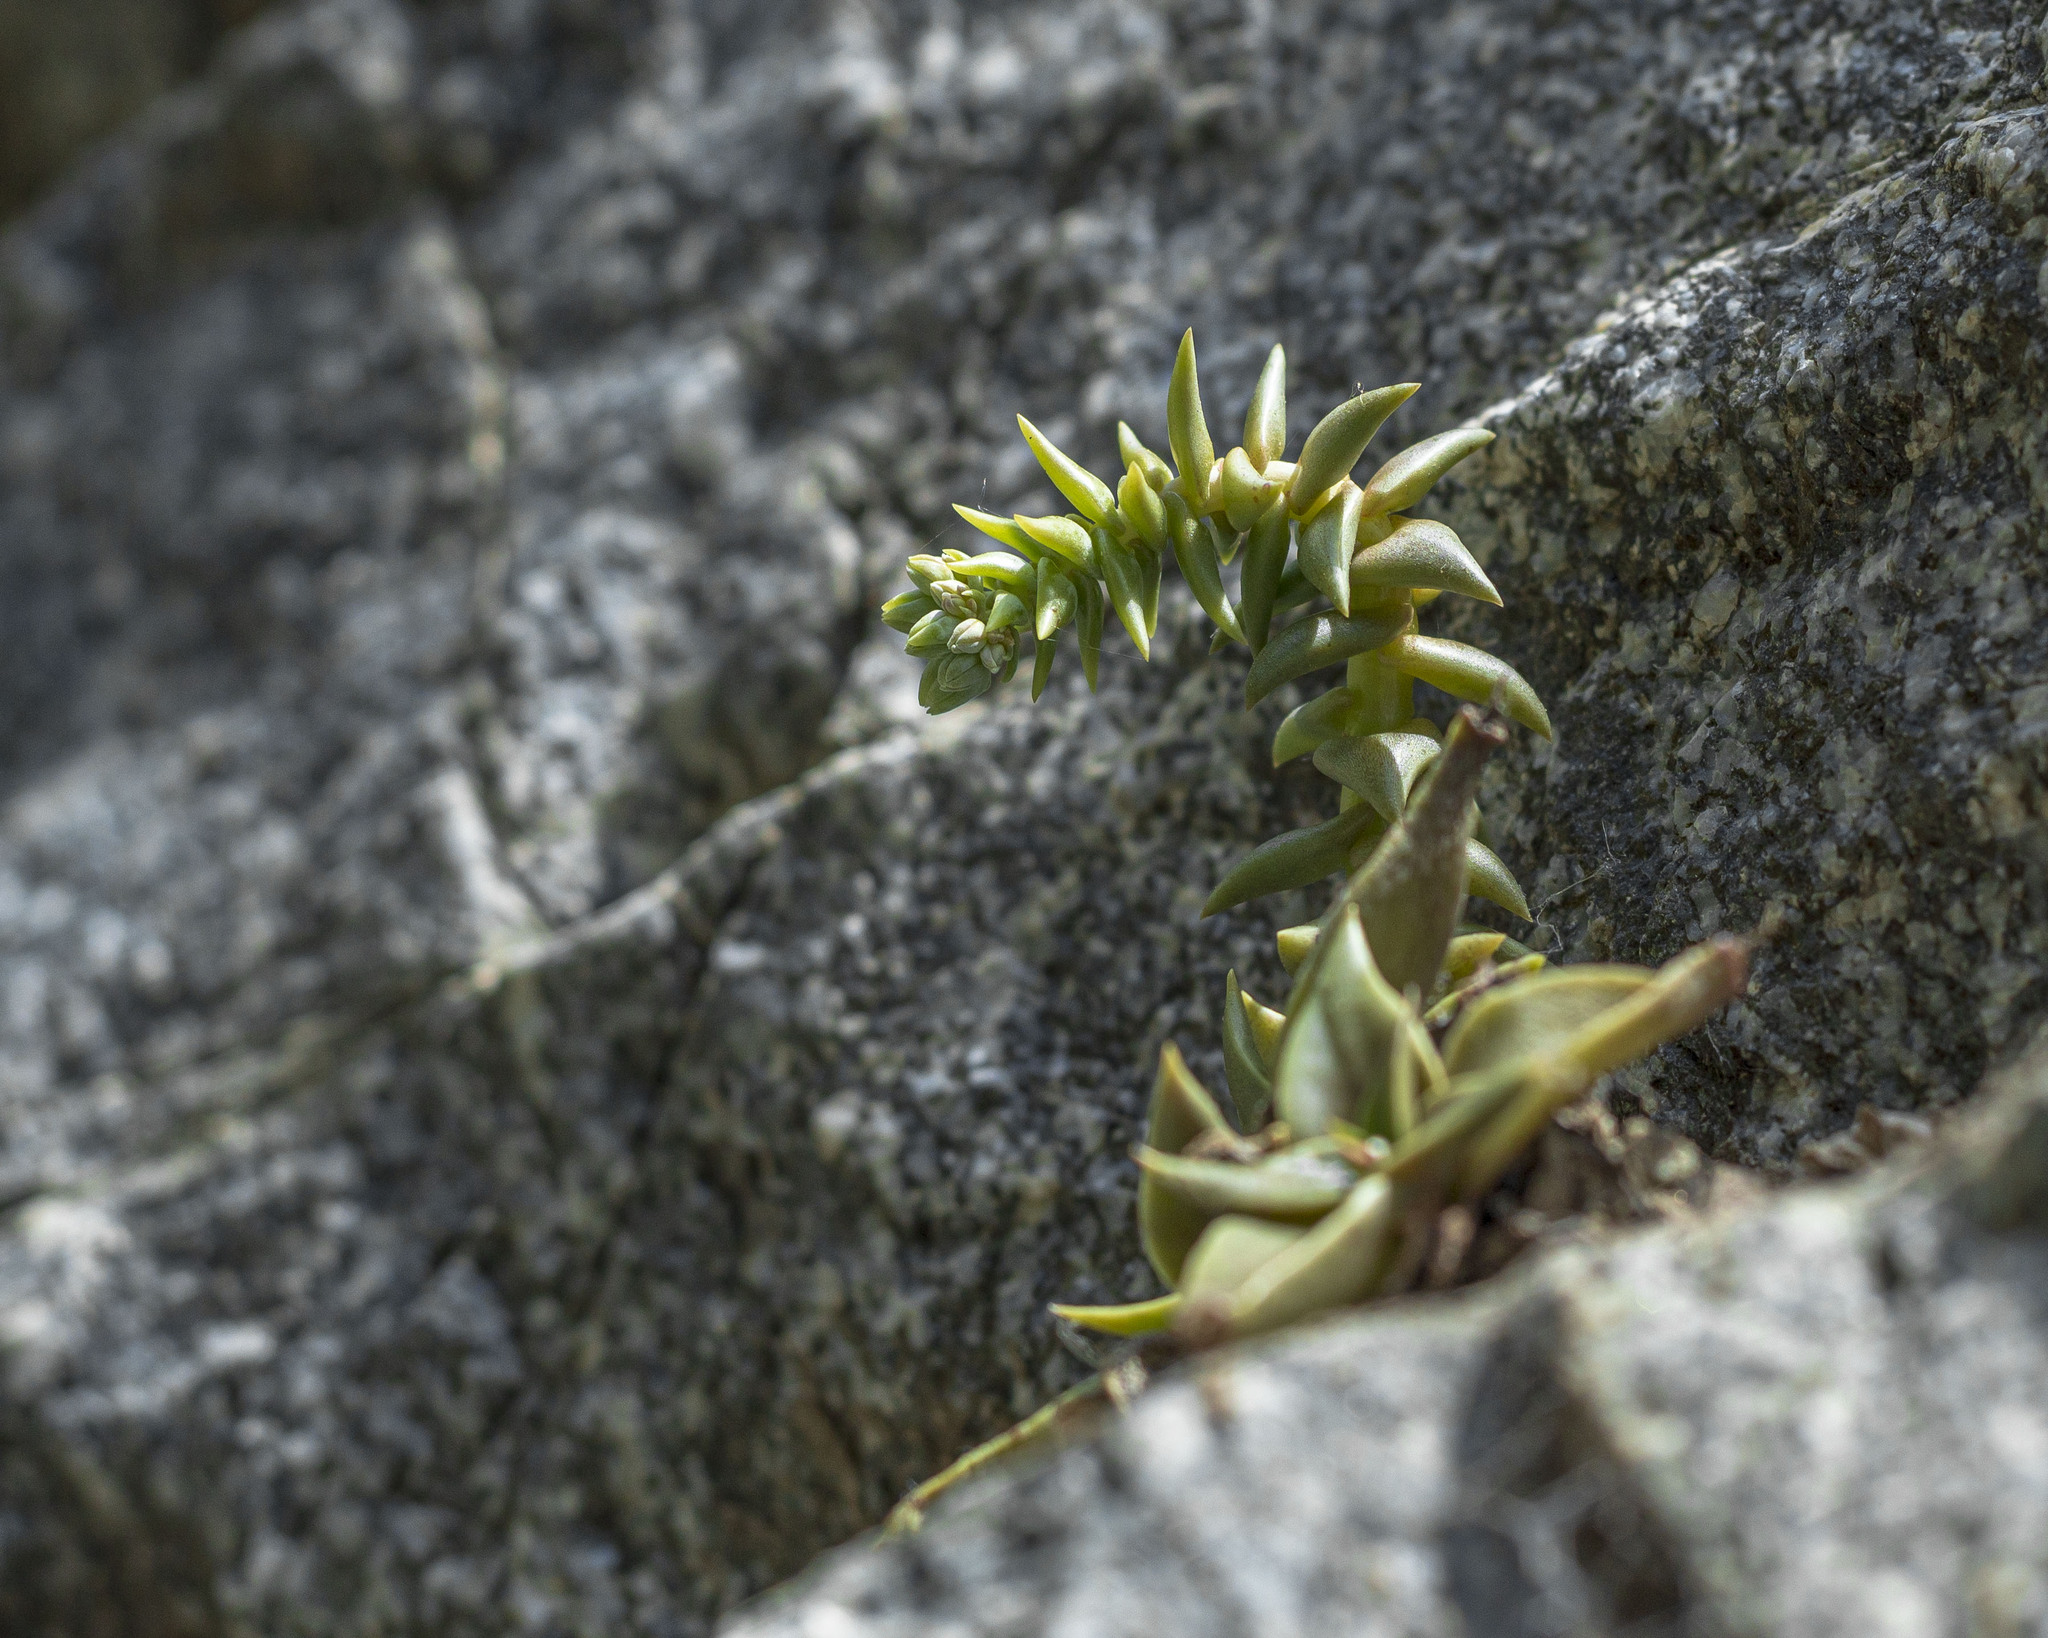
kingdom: Plantae
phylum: Tracheophyta
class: Magnoliopsida
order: Saxifragales
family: Crassulaceae
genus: Dudleya
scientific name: Dudleya cymosa
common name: Canyon dudleya
